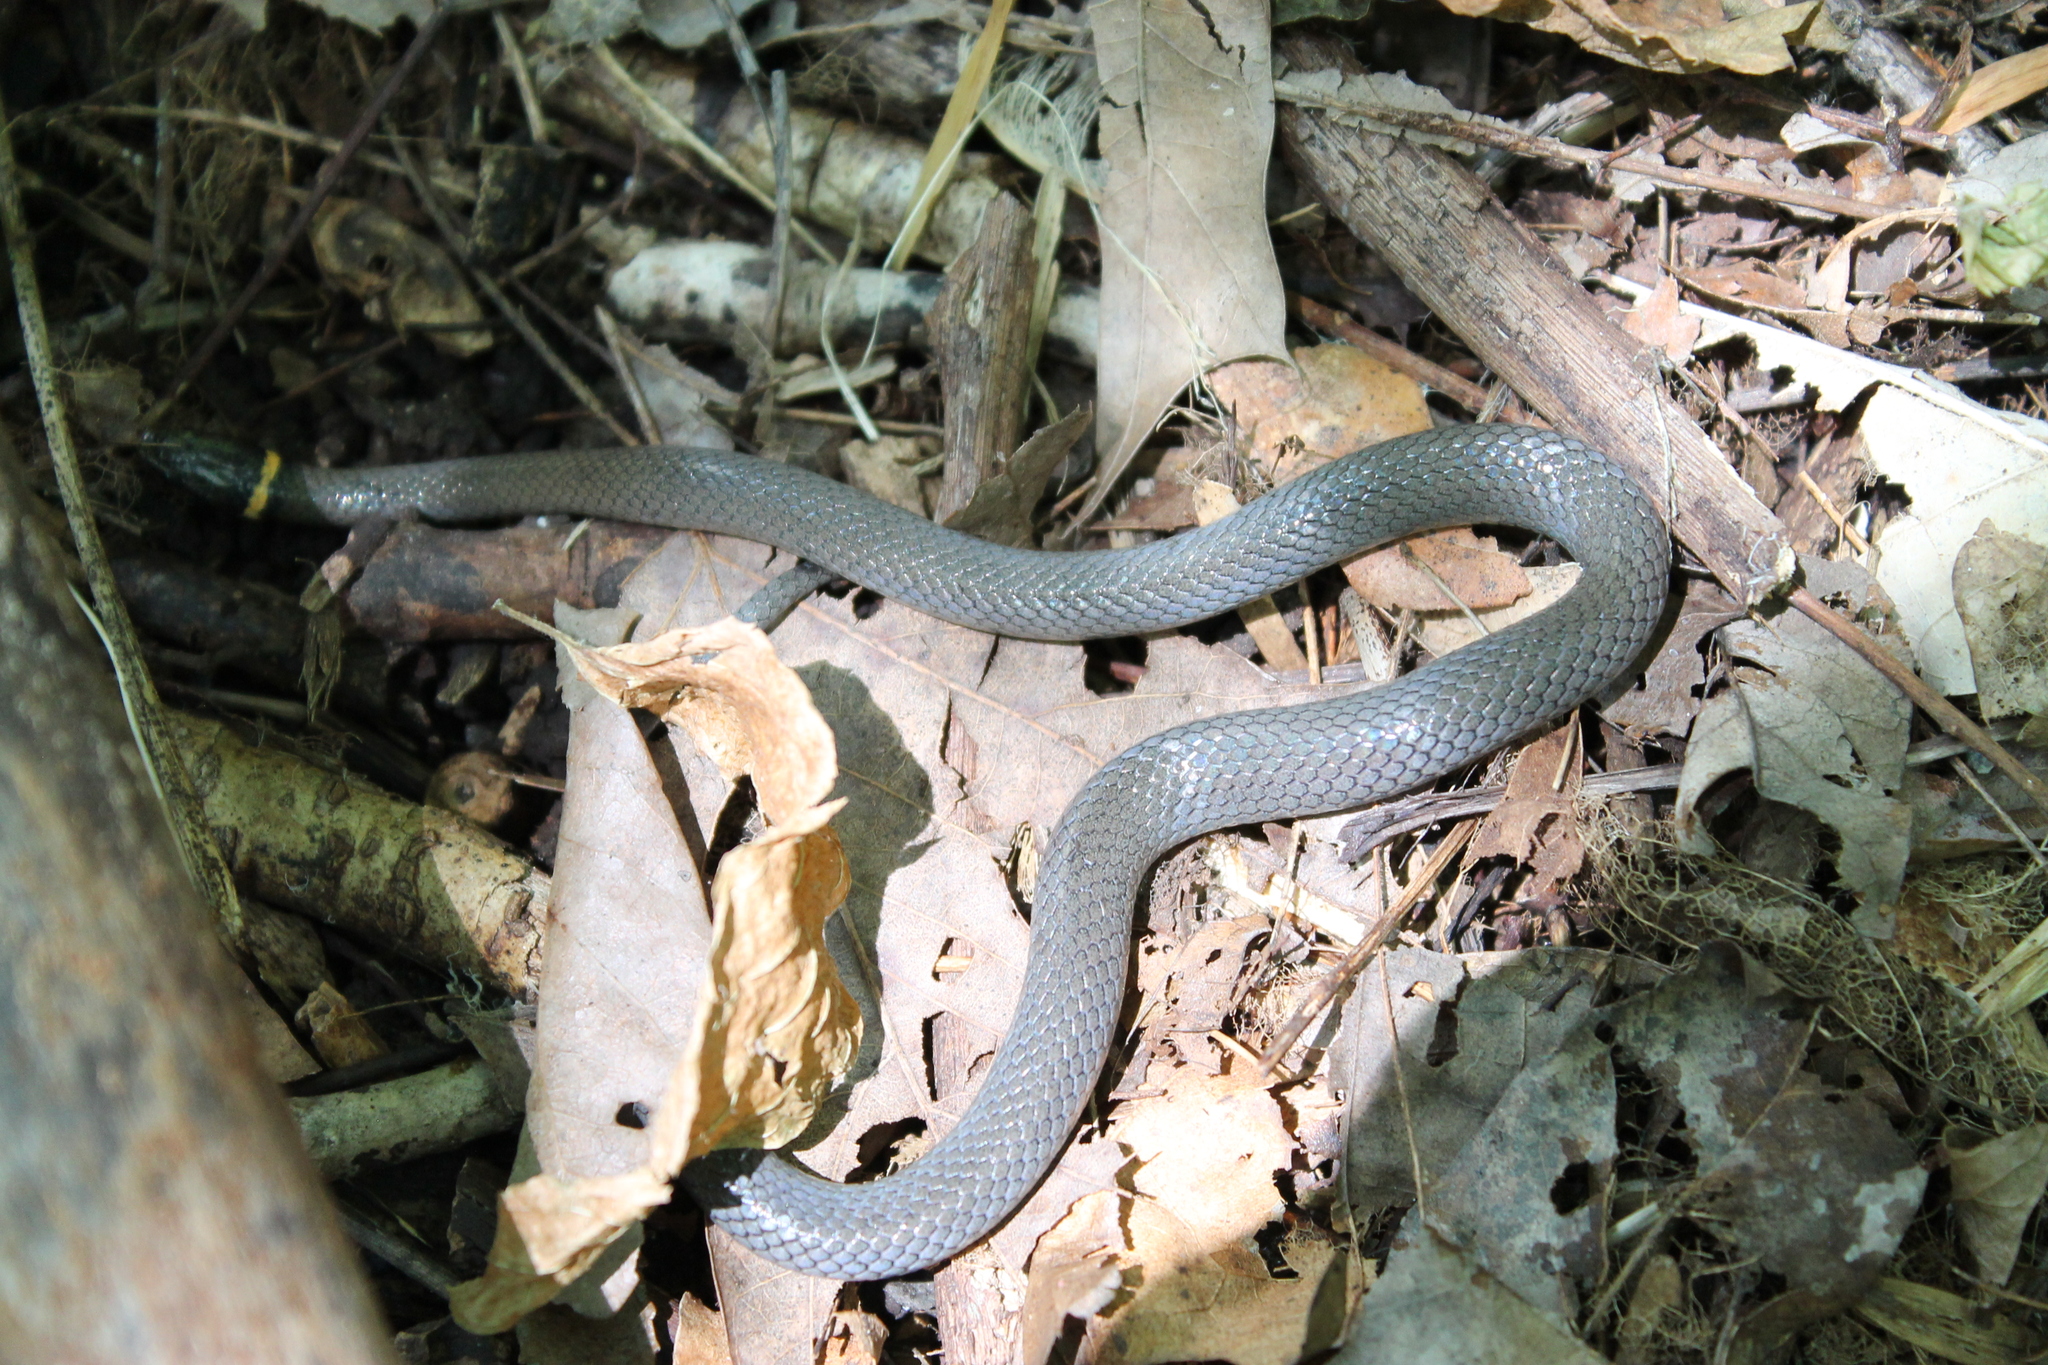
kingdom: Animalia
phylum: Chordata
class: Squamata
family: Colubridae
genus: Diadophis
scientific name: Diadophis punctatus
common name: Ringneck snake
